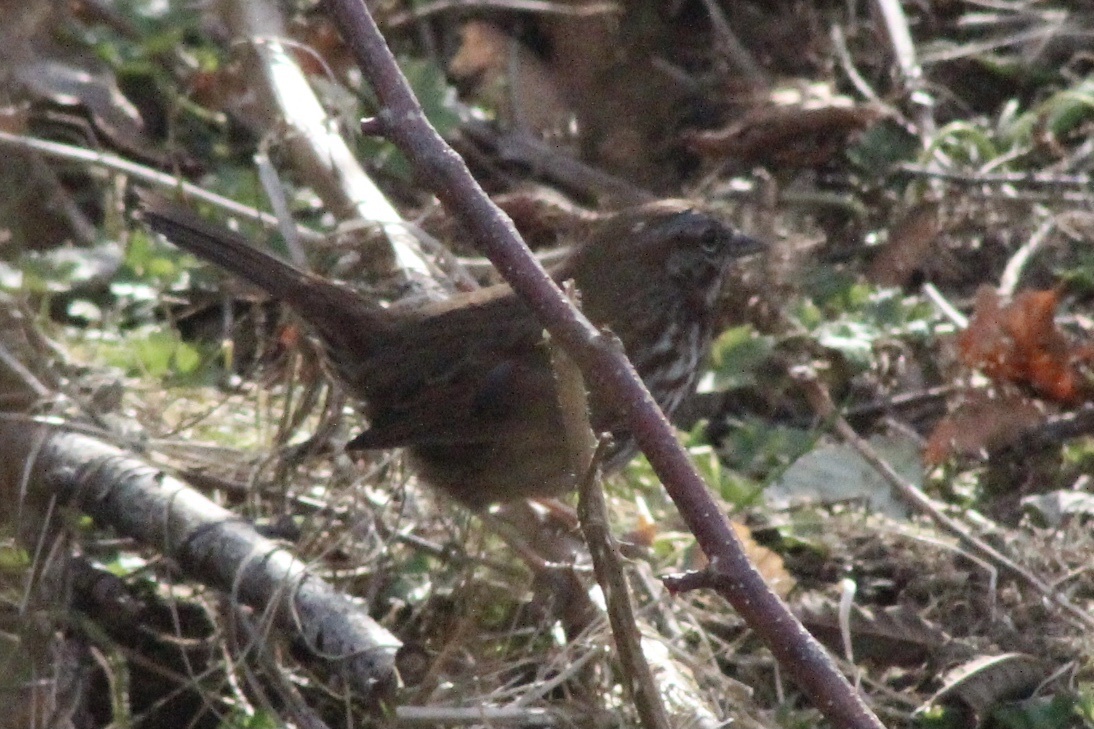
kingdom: Animalia
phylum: Chordata
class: Aves
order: Passeriformes
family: Passerellidae
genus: Melospiza
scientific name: Melospiza melodia
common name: Song sparrow
